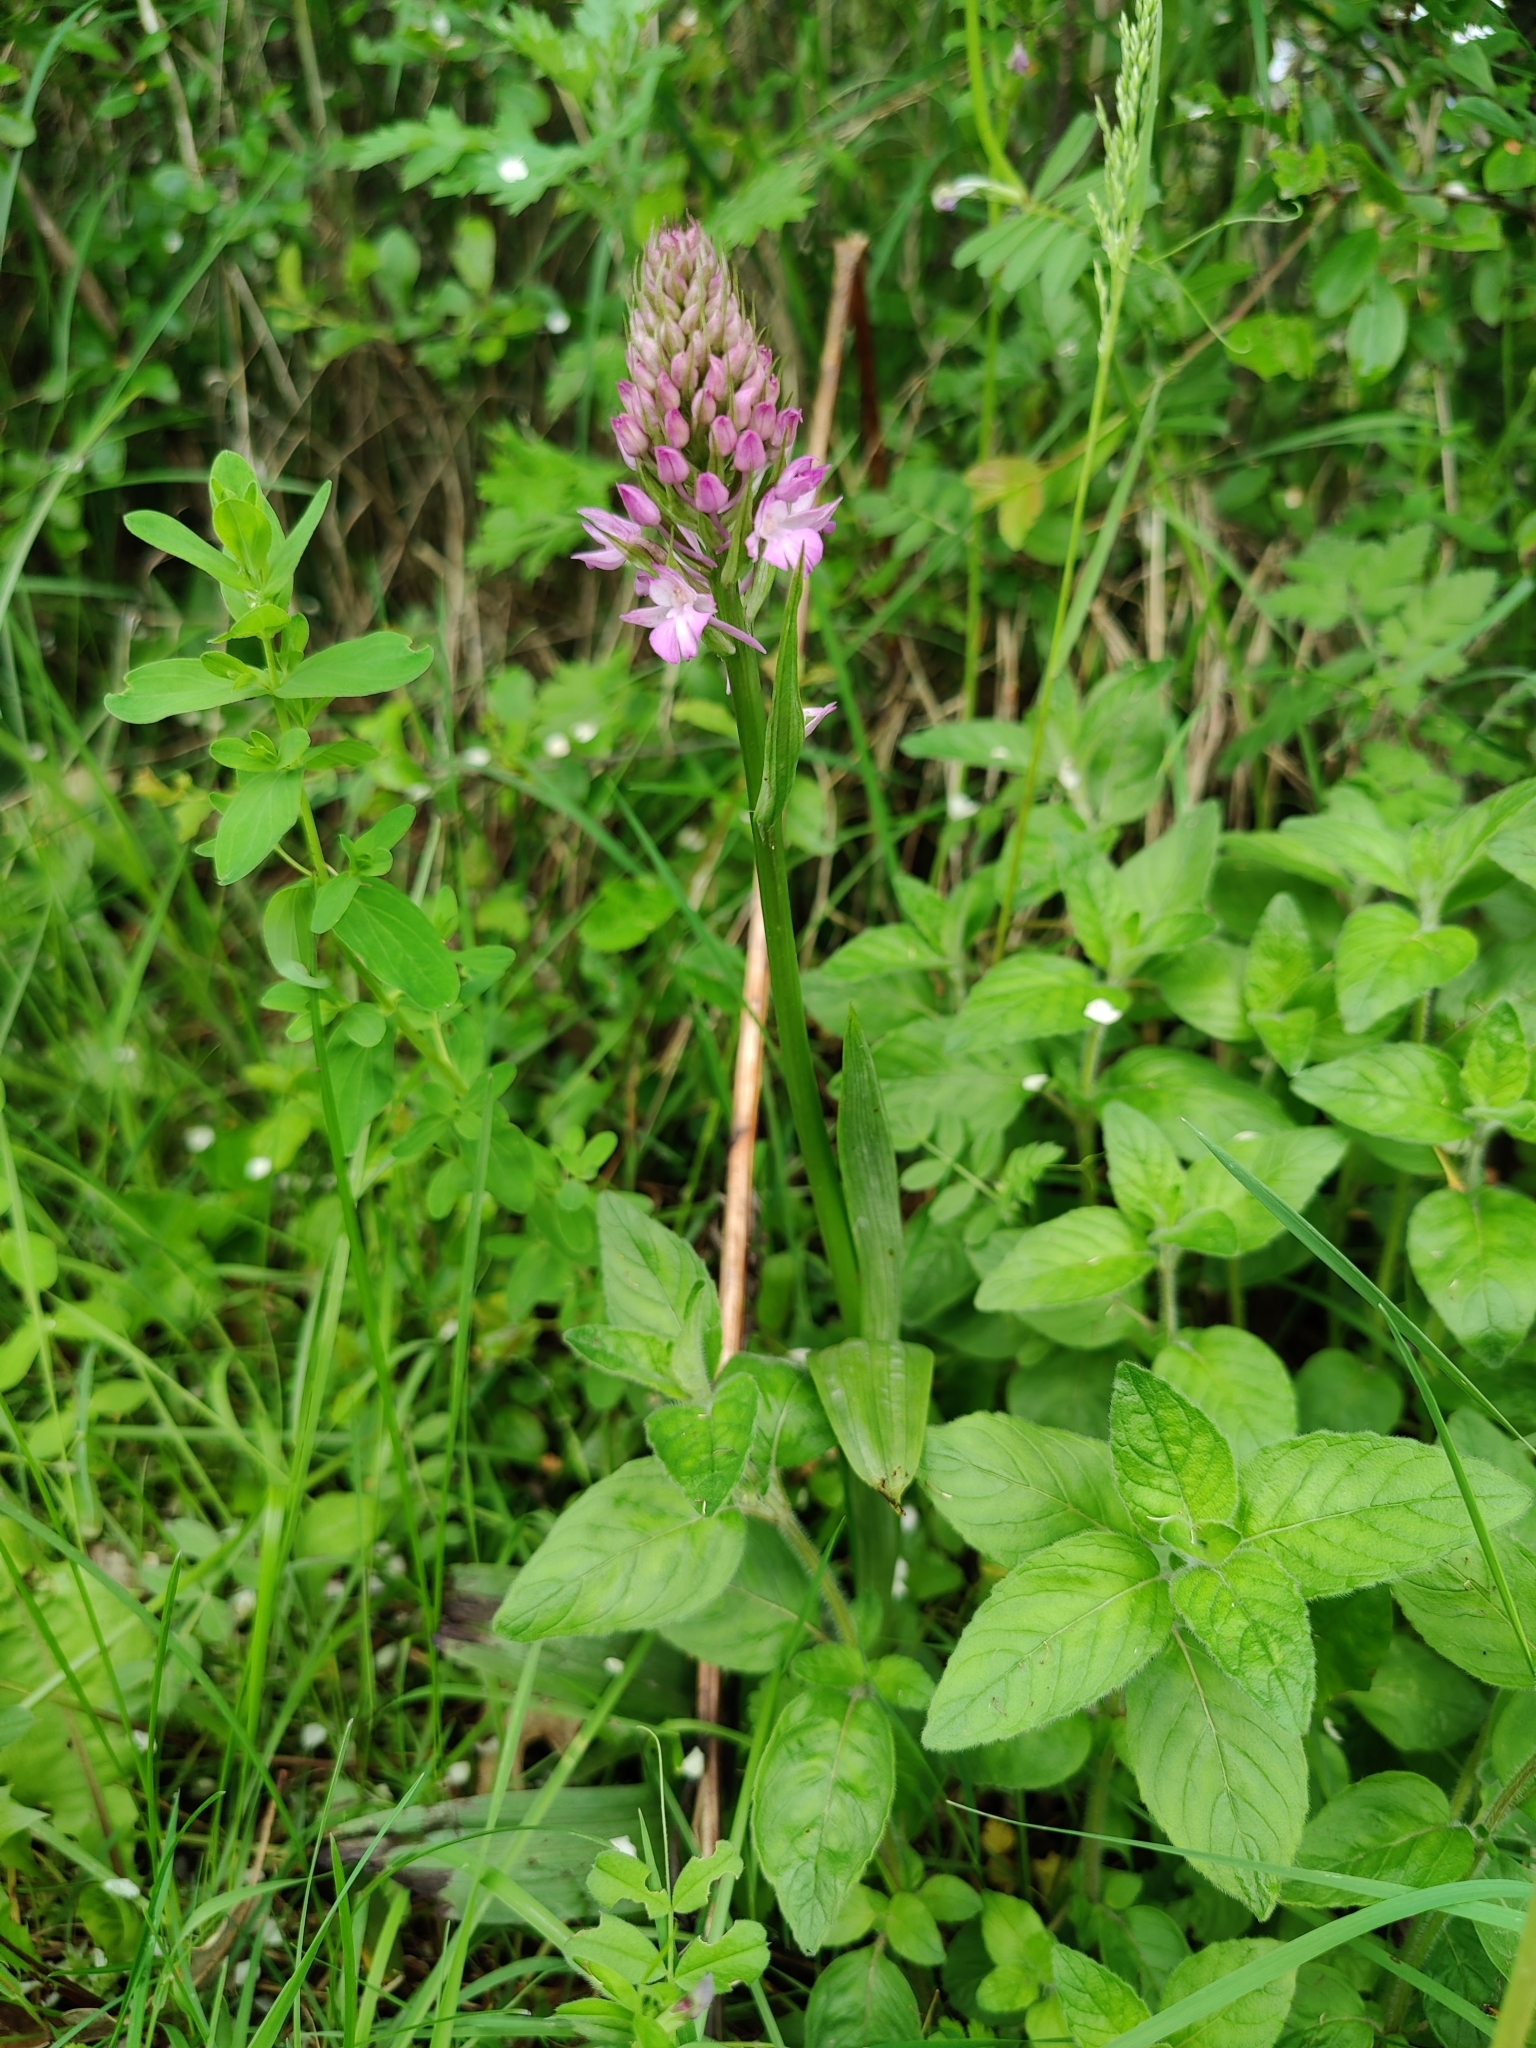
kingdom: Plantae
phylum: Tracheophyta
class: Liliopsida
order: Asparagales
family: Orchidaceae
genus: Anacamptis
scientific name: Anacamptis pyramidalis
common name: Pyramidal orchid
